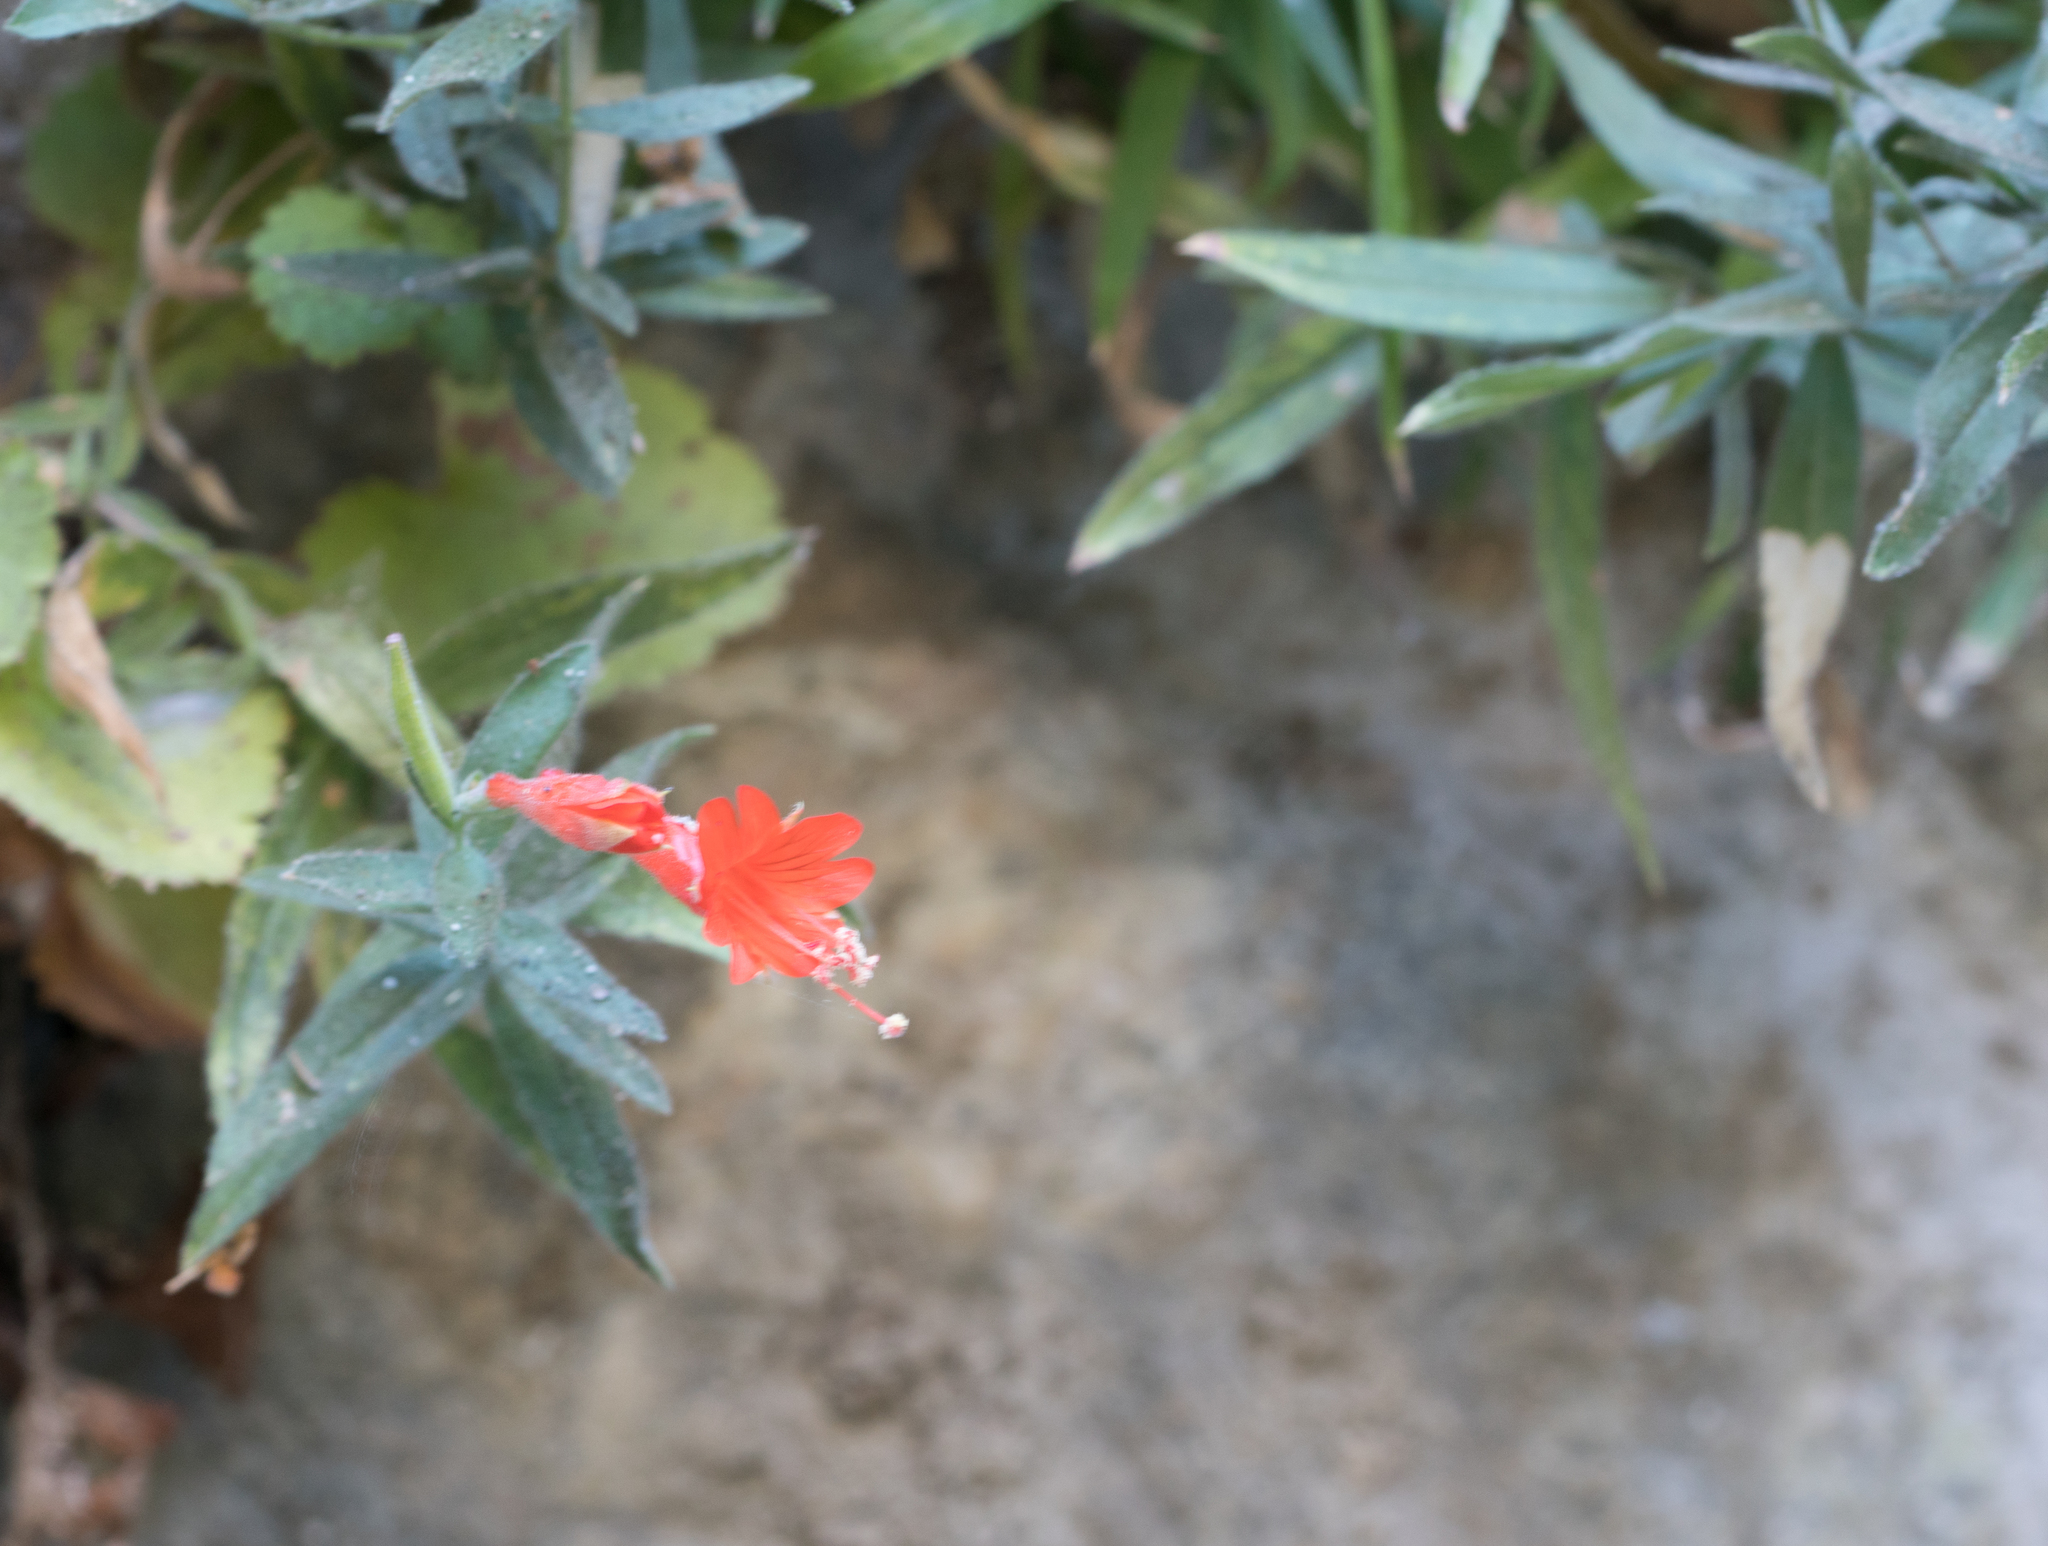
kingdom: Plantae
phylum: Tracheophyta
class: Magnoliopsida
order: Myrtales
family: Onagraceae
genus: Epilobium
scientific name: Epilobium canum
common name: California-fuchsia
